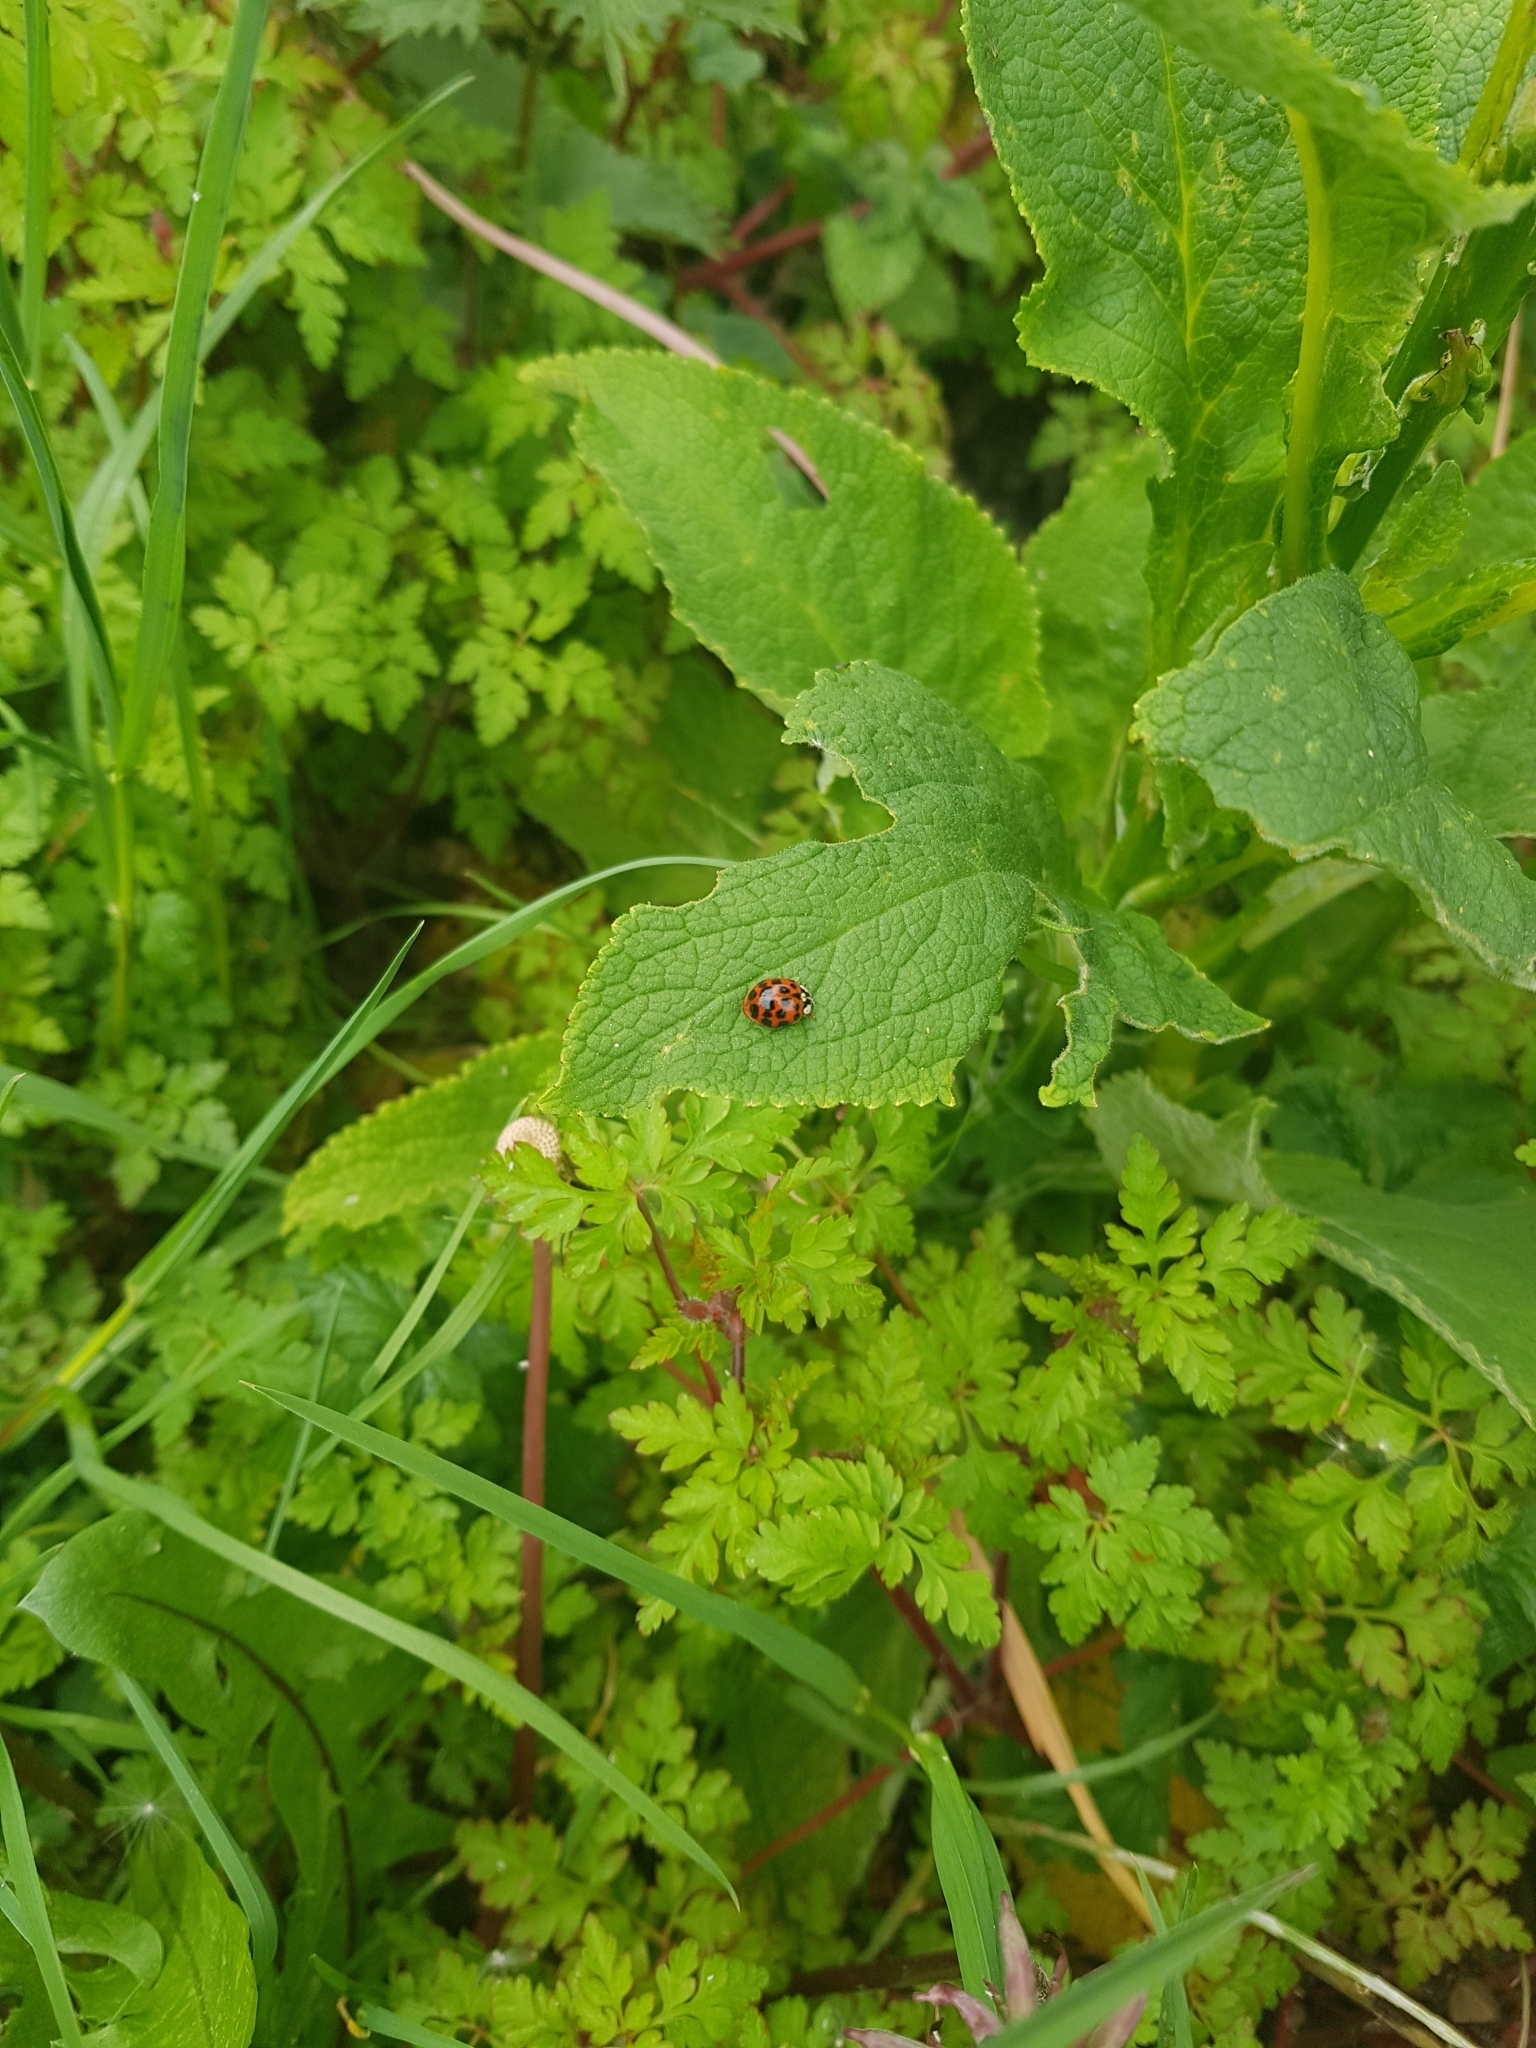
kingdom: Animalia
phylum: Arthropoda
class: Insecta
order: Coleoptera
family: Coccinellidae
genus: Harmonia
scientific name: Harmonia axyridis
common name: Harlequin ladybird
